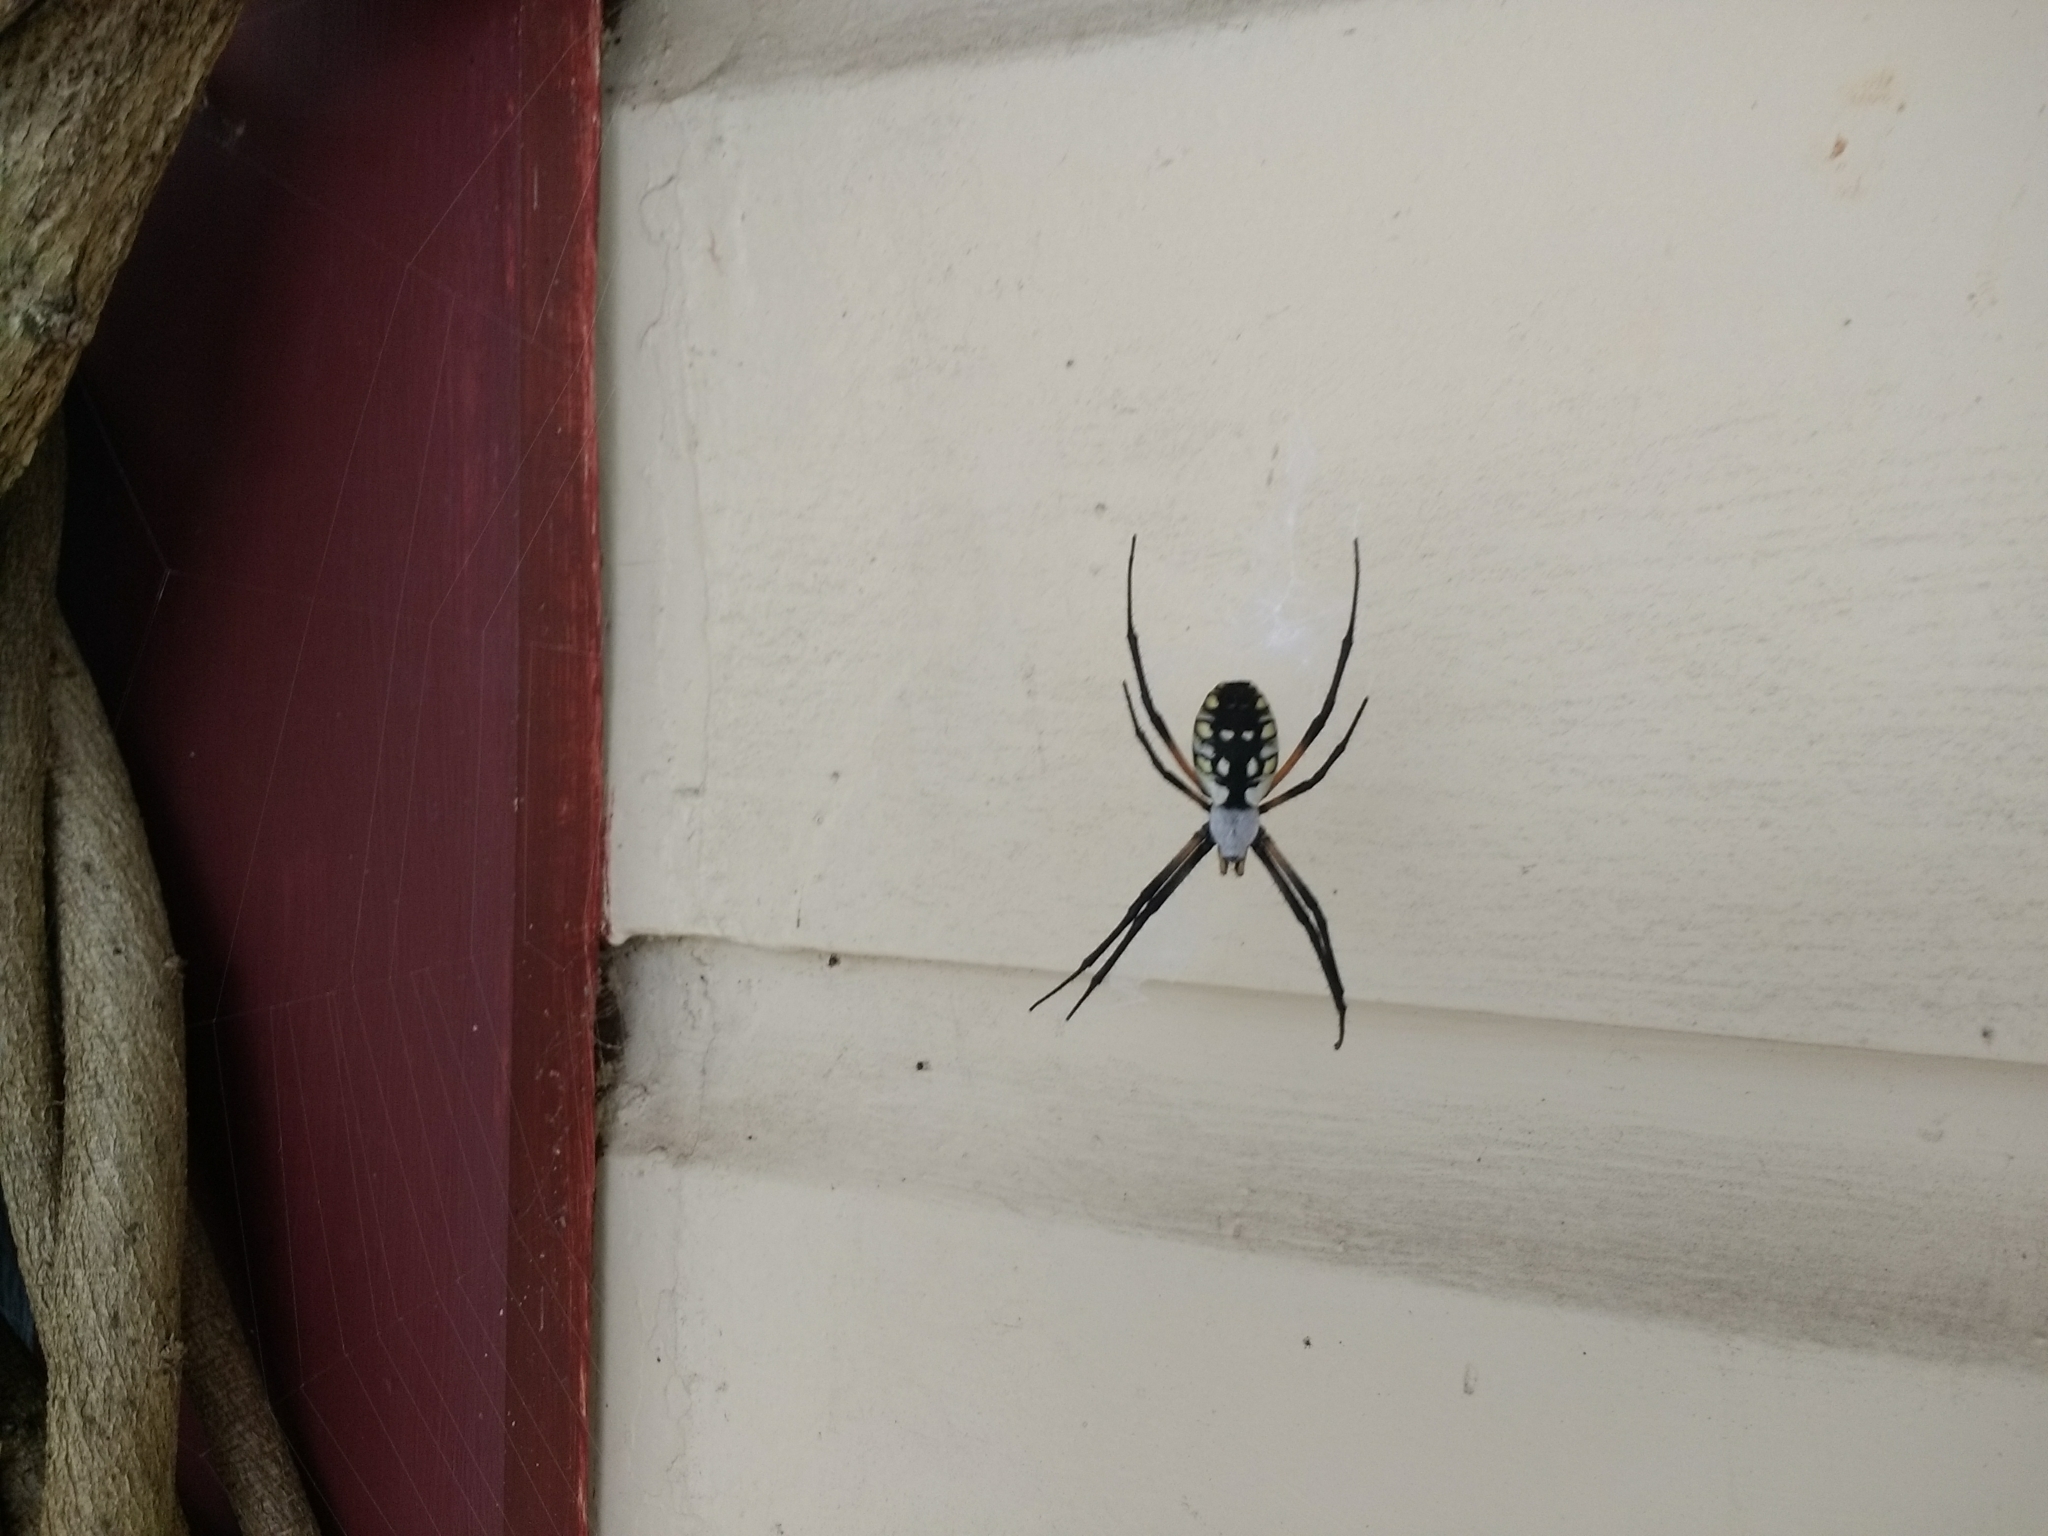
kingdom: Animalia
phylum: Arthropoda
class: Arachnida
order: Araneae
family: Araneidae
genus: Argiope
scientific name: Argiope aurantia
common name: Orb weavers
